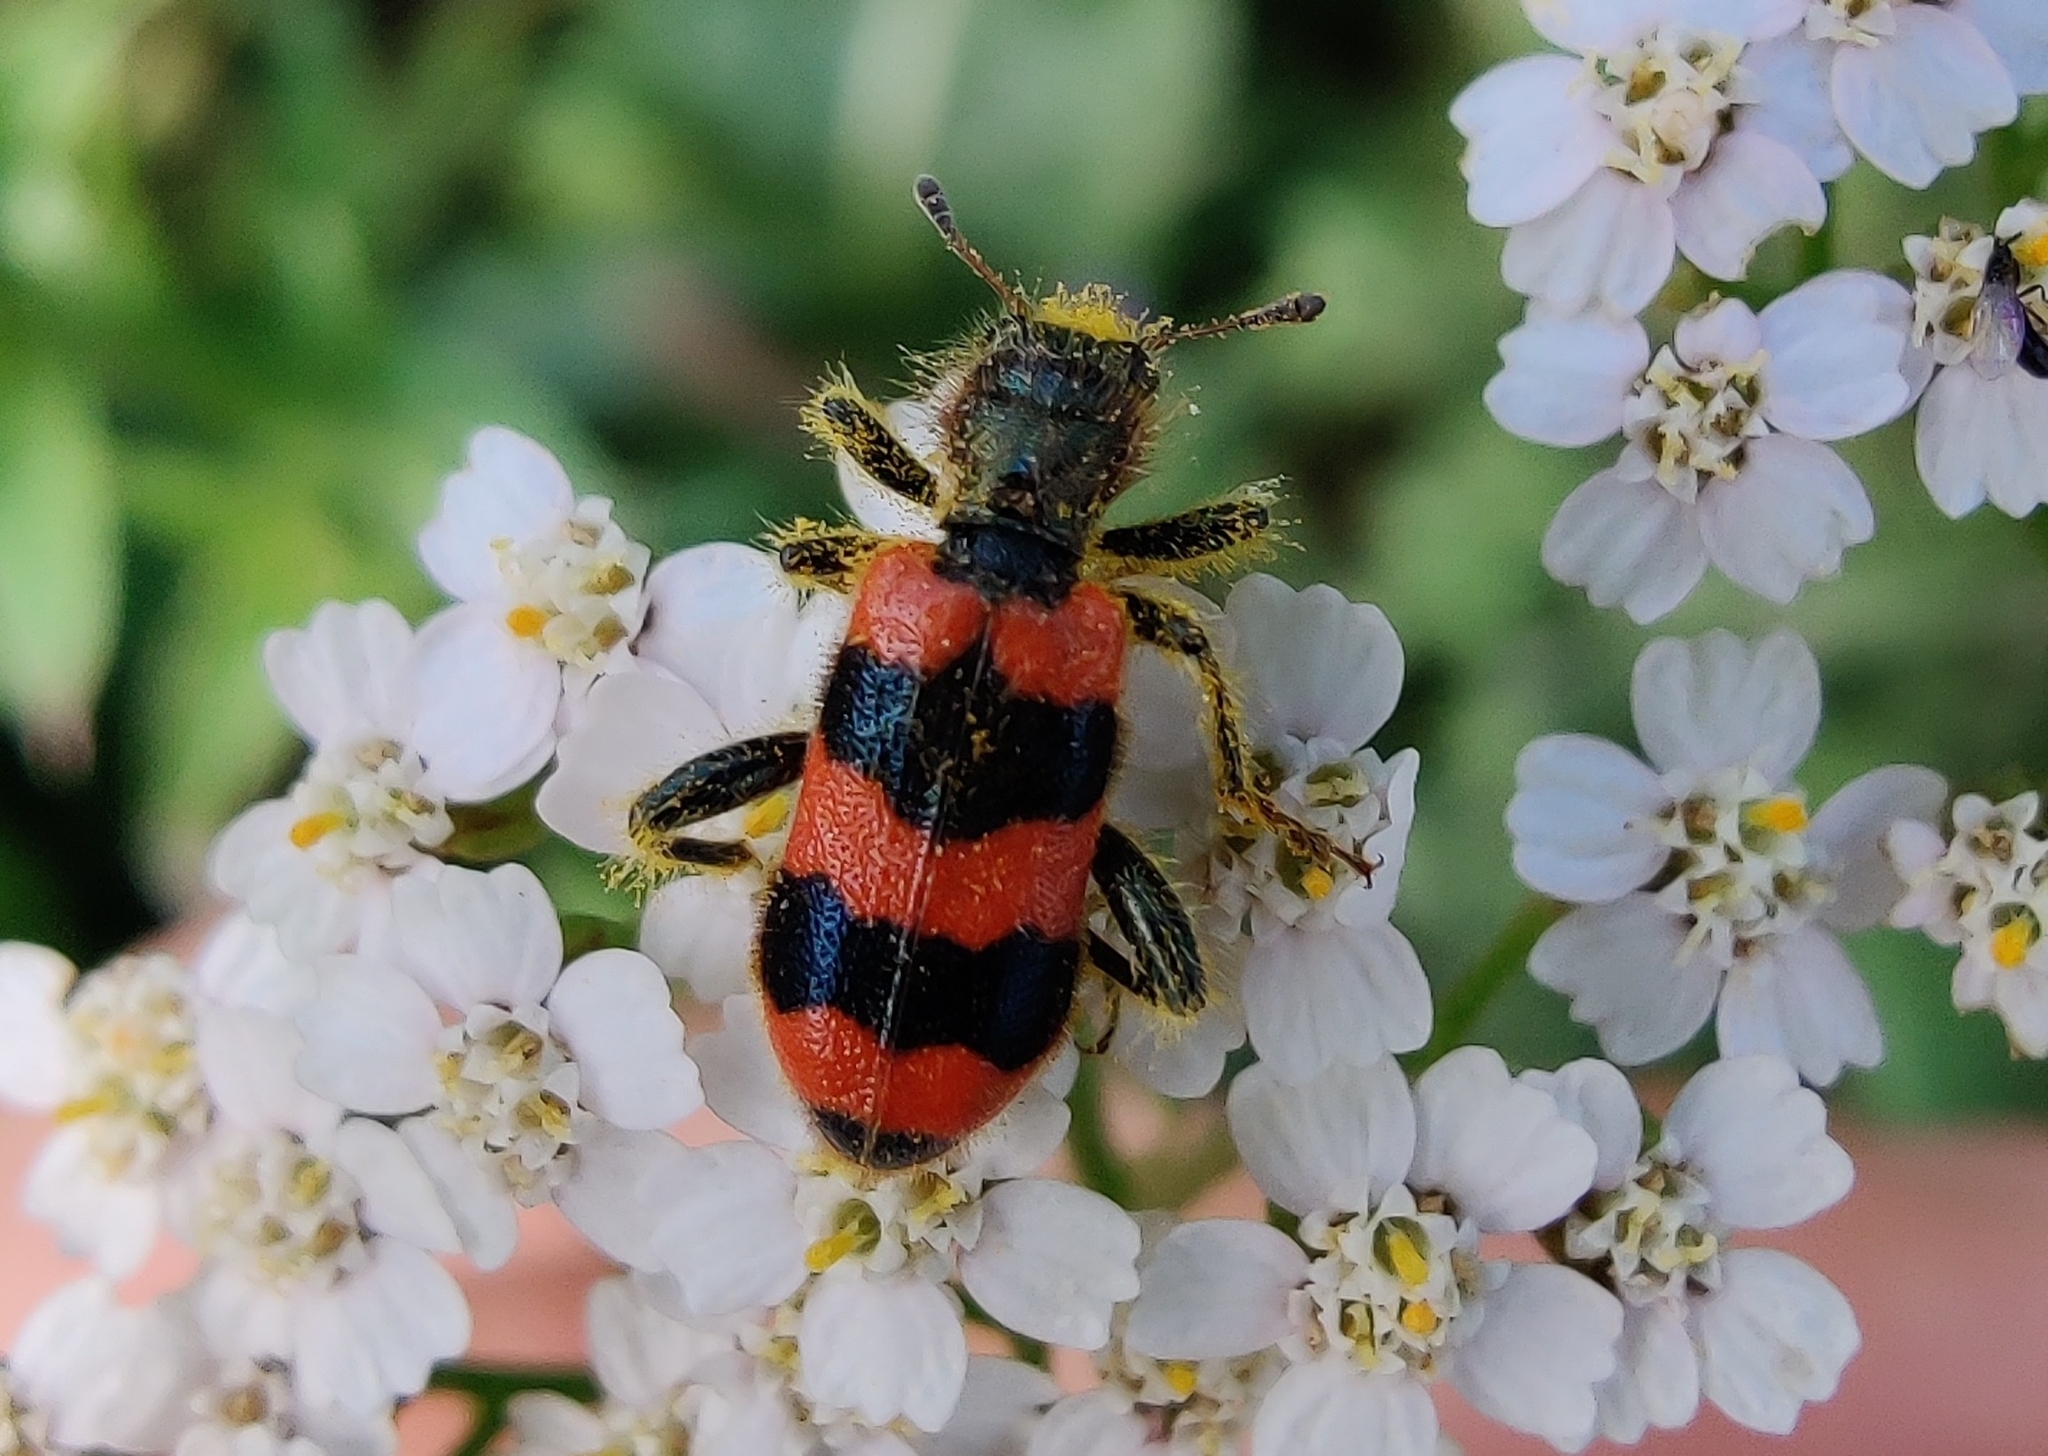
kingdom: Animalia
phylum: Arthropoda
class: Insecta
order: Coleoptera
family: Cleridae
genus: Trichodes
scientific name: Trichodes apiarius
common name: Bee-eating beetle
